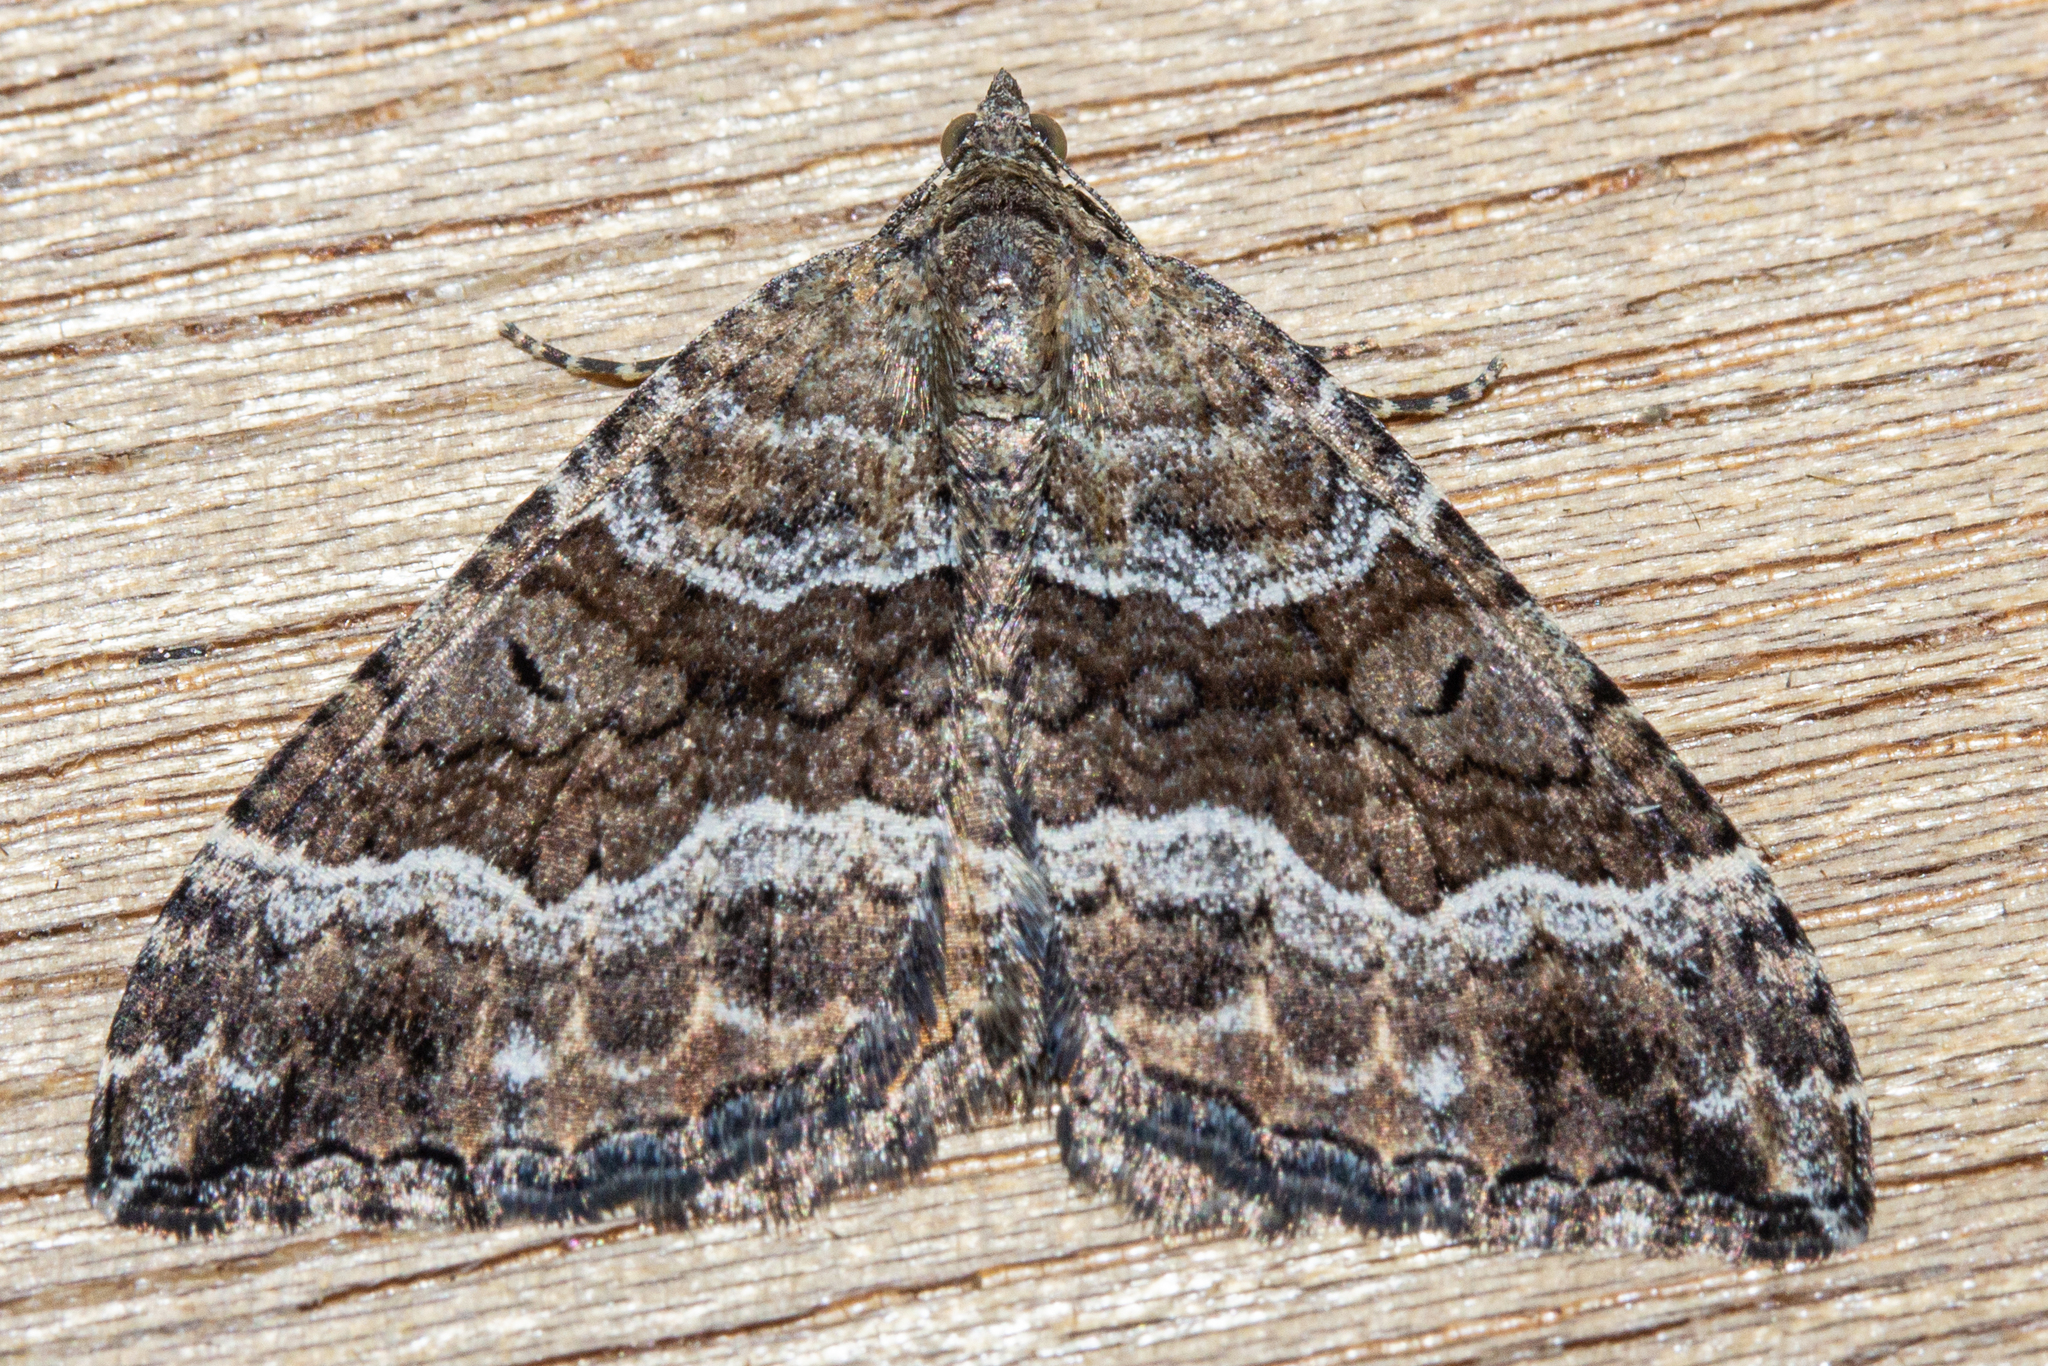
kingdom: Animalia
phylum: Arthropoda
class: Insecta
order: Lepidoptera
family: Geometridae
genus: Hydriomena
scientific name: Hydriomena deltoidata
